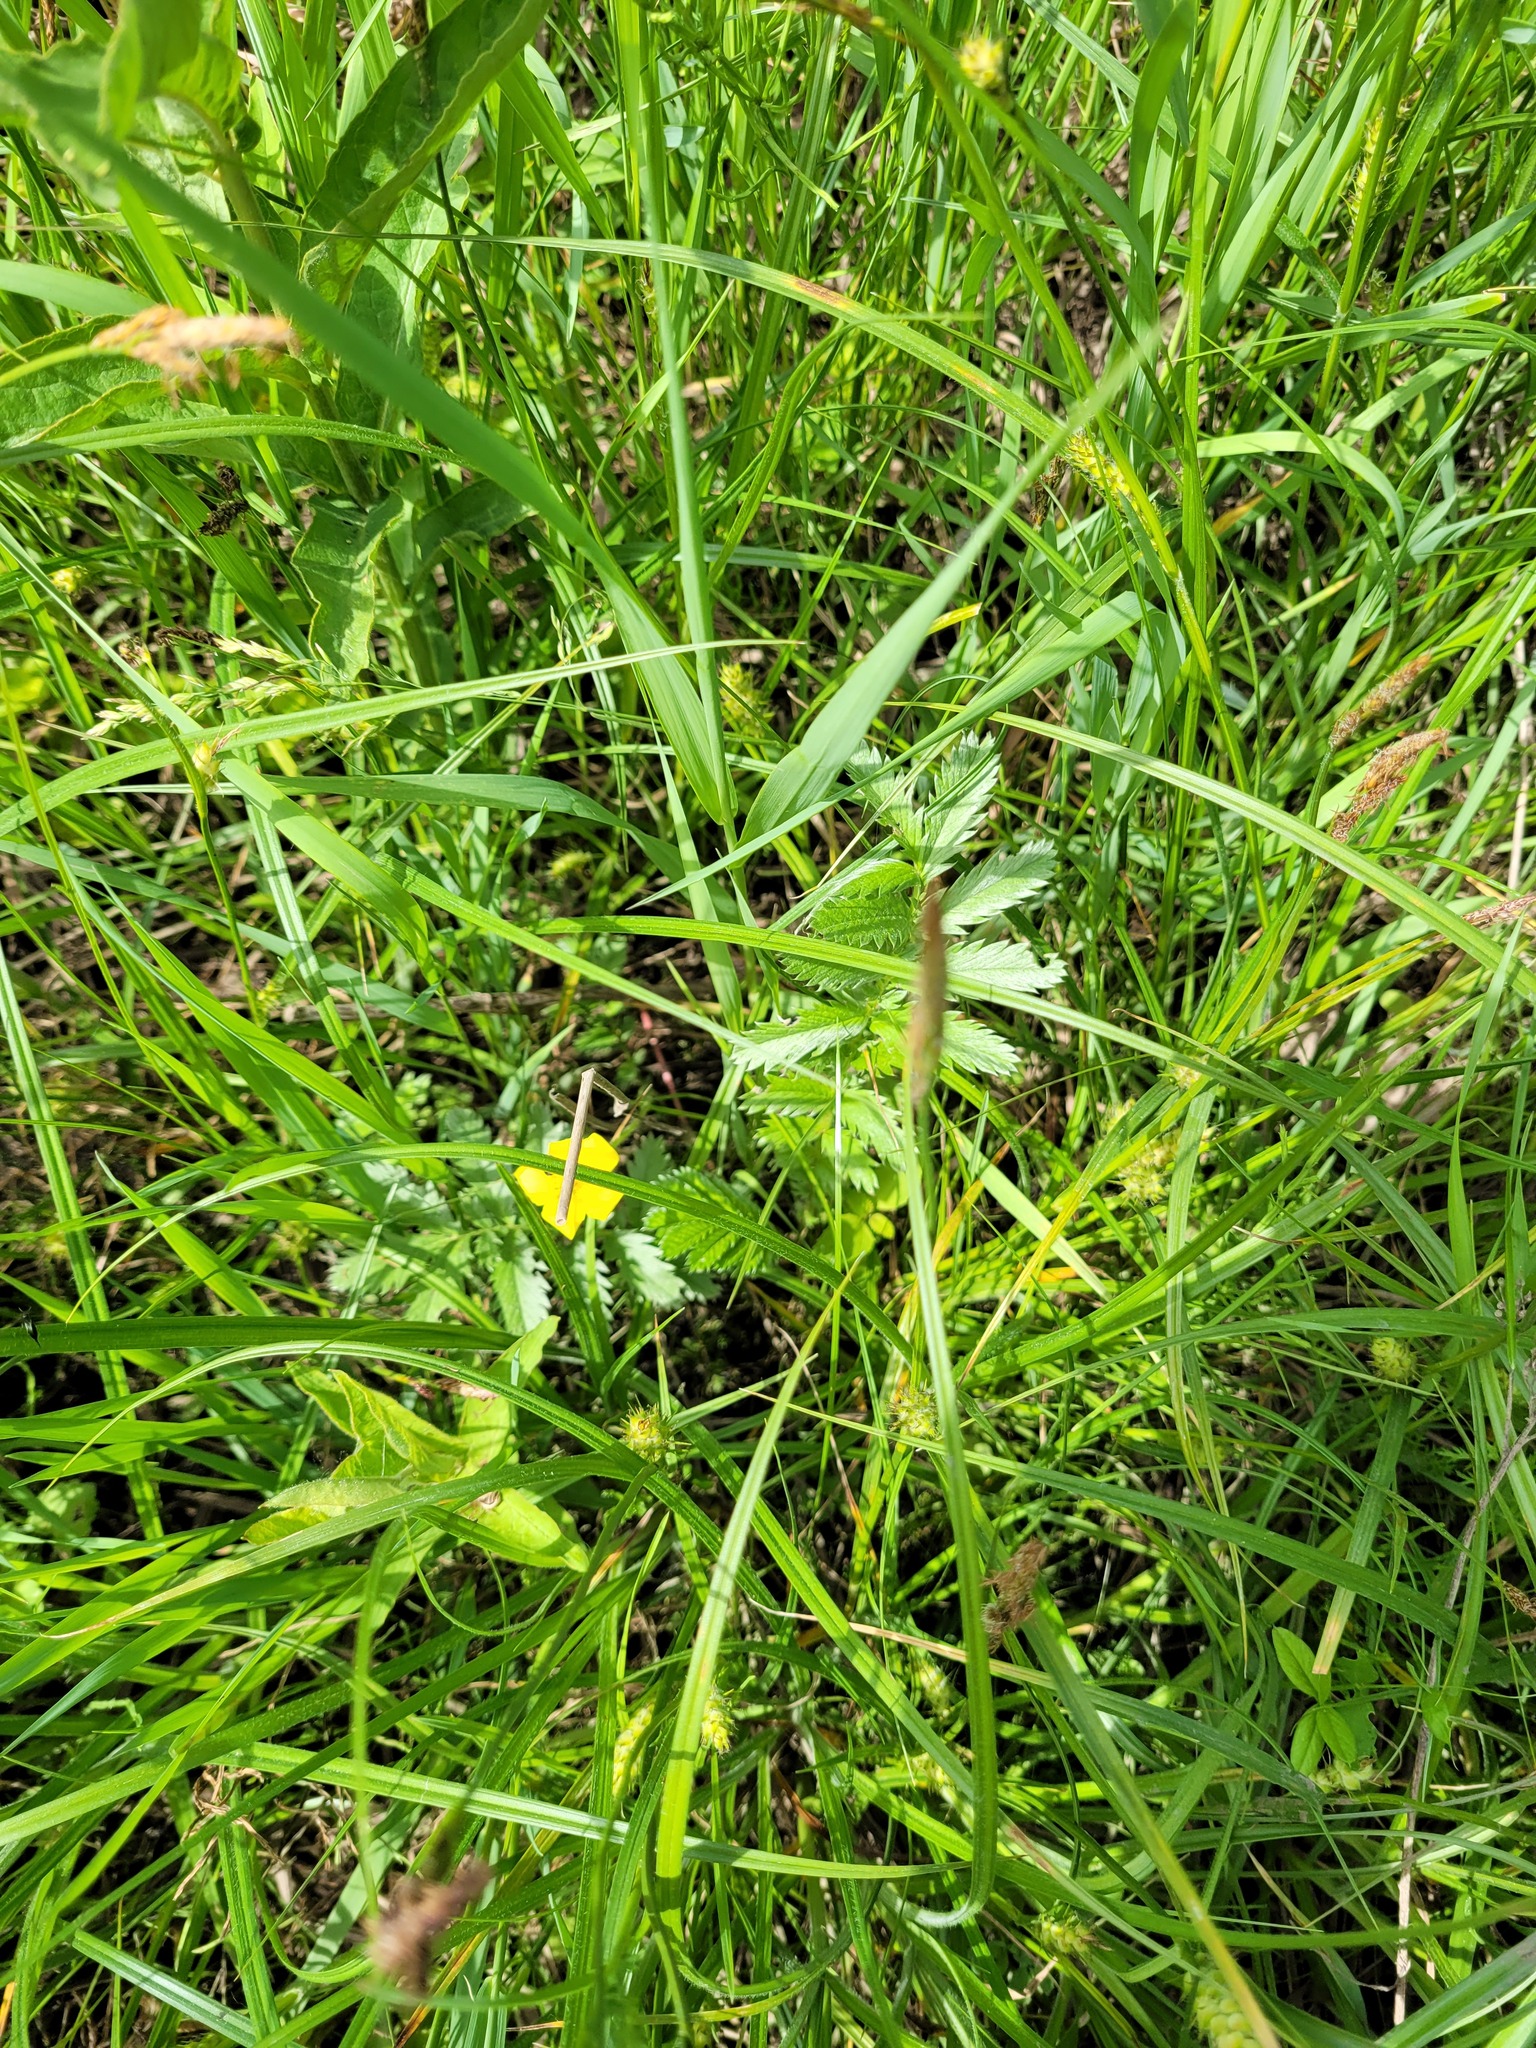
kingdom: Plantae
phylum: Tracheophyta
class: Magnoliopsida
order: Rosales
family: Rosaceae
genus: Argentina
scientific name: Argentina anserina
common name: Common silverweed
